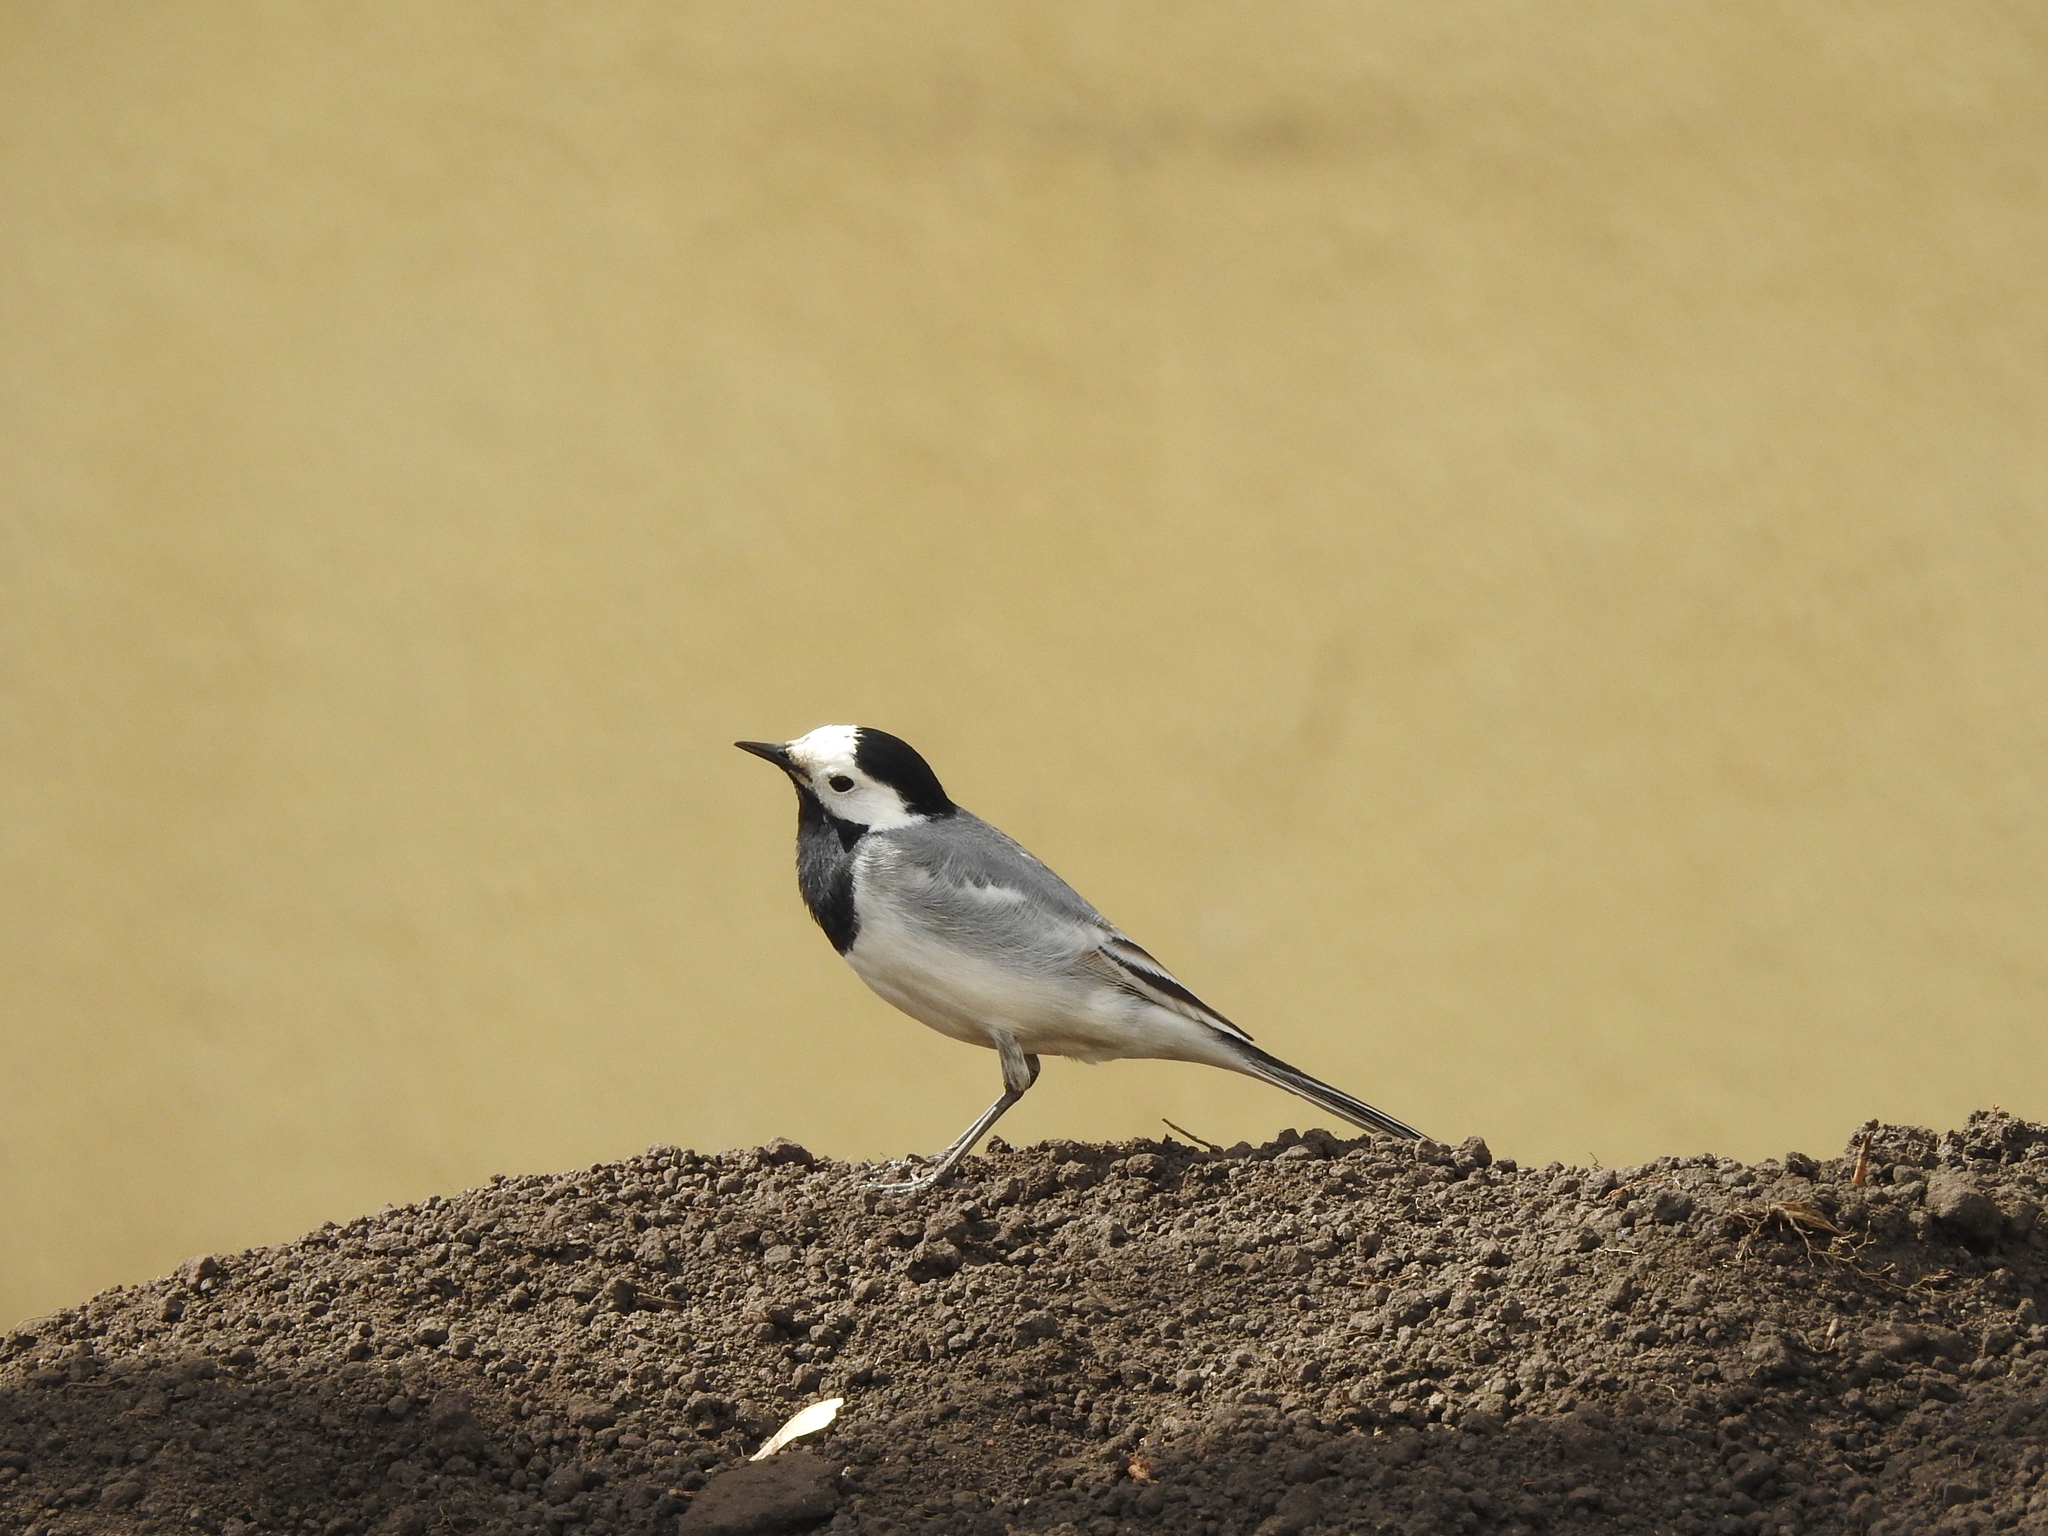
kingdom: Animalia
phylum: Chordata
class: Aves
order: Passeriformes
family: Motacillidae
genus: Motacilla
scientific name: Motacilla alba
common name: White wagtail
